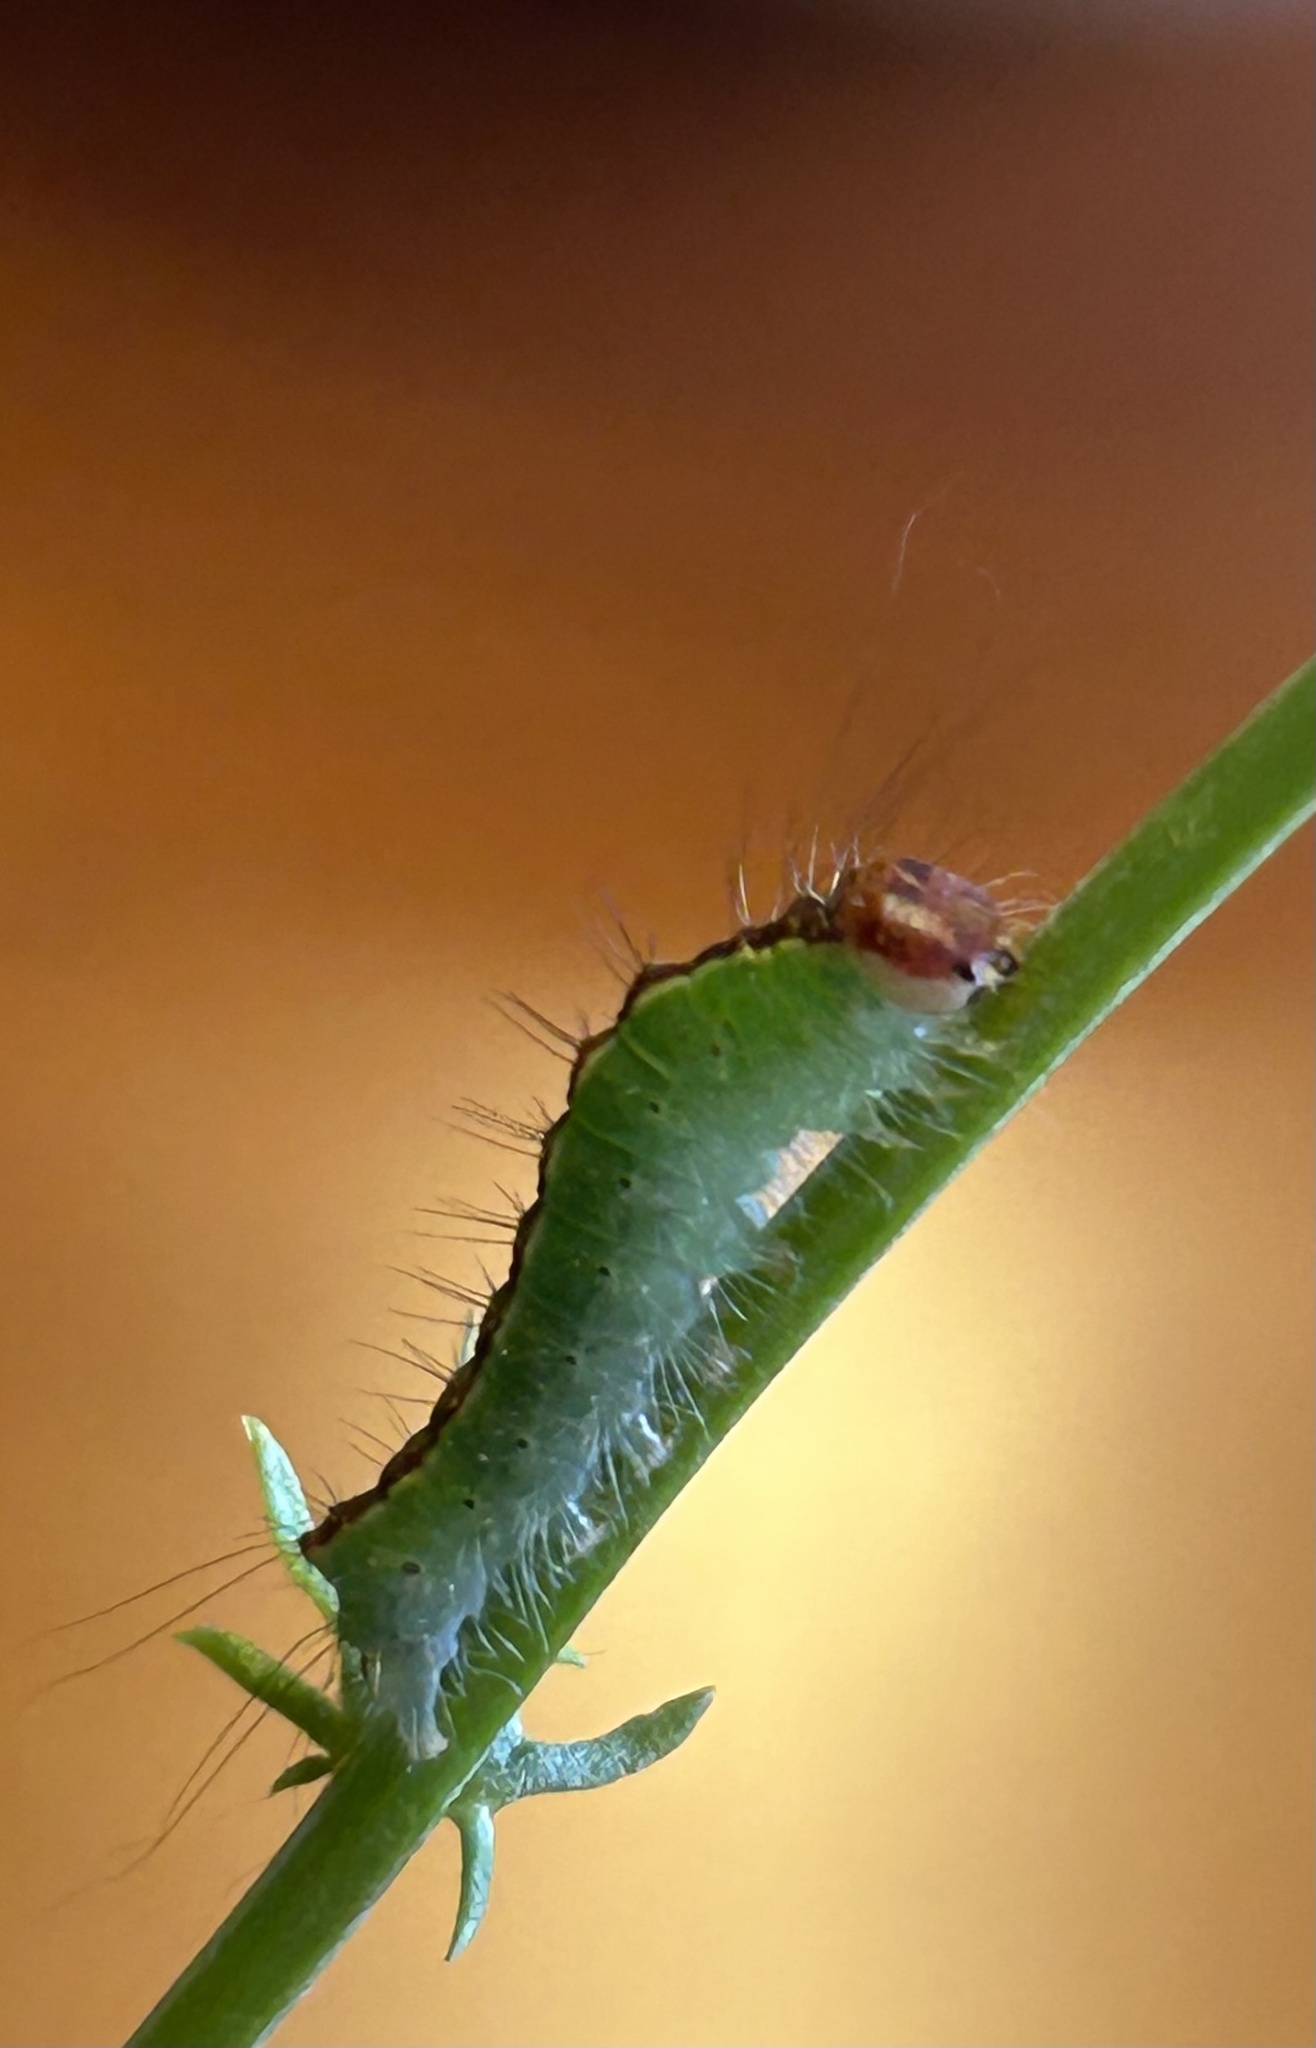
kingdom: Animalia
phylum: Arthropoda
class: Insecta
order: Lepidoptera
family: Noctuidae
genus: Acronicta
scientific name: Acronicta superans
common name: Splendid dagger
